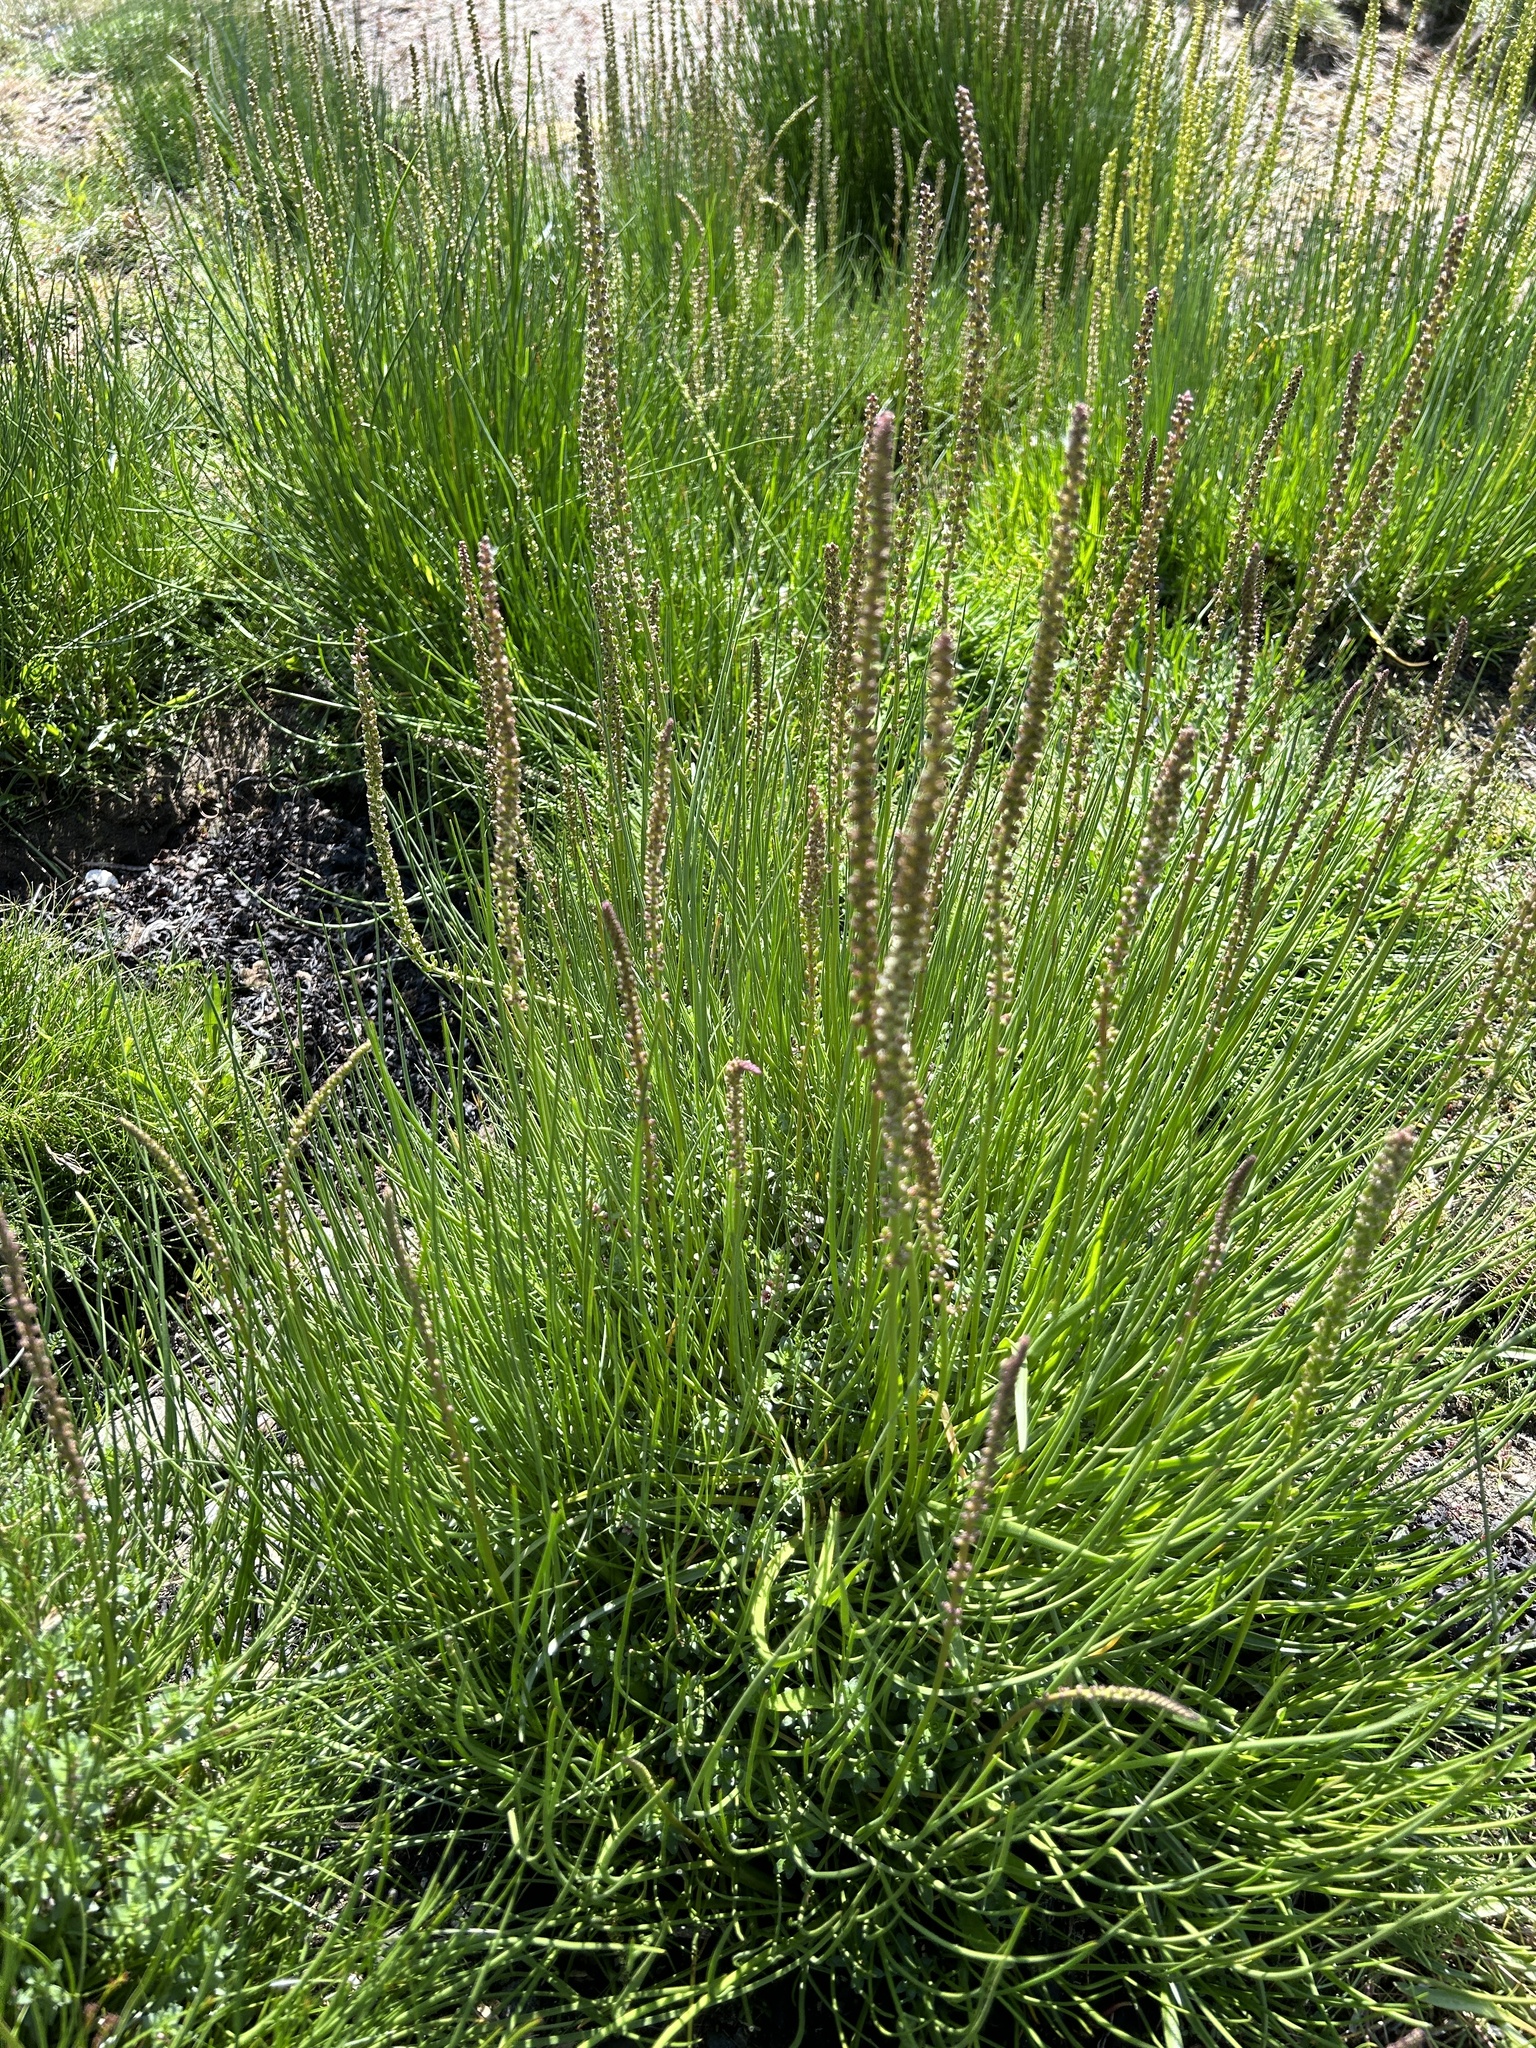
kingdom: Plantae
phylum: Tracheophyta
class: Liliopsida
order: Alismatales
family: Juncaginaceae
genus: Triglochin
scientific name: Triglochin maritima
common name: Sea arrowgrass
